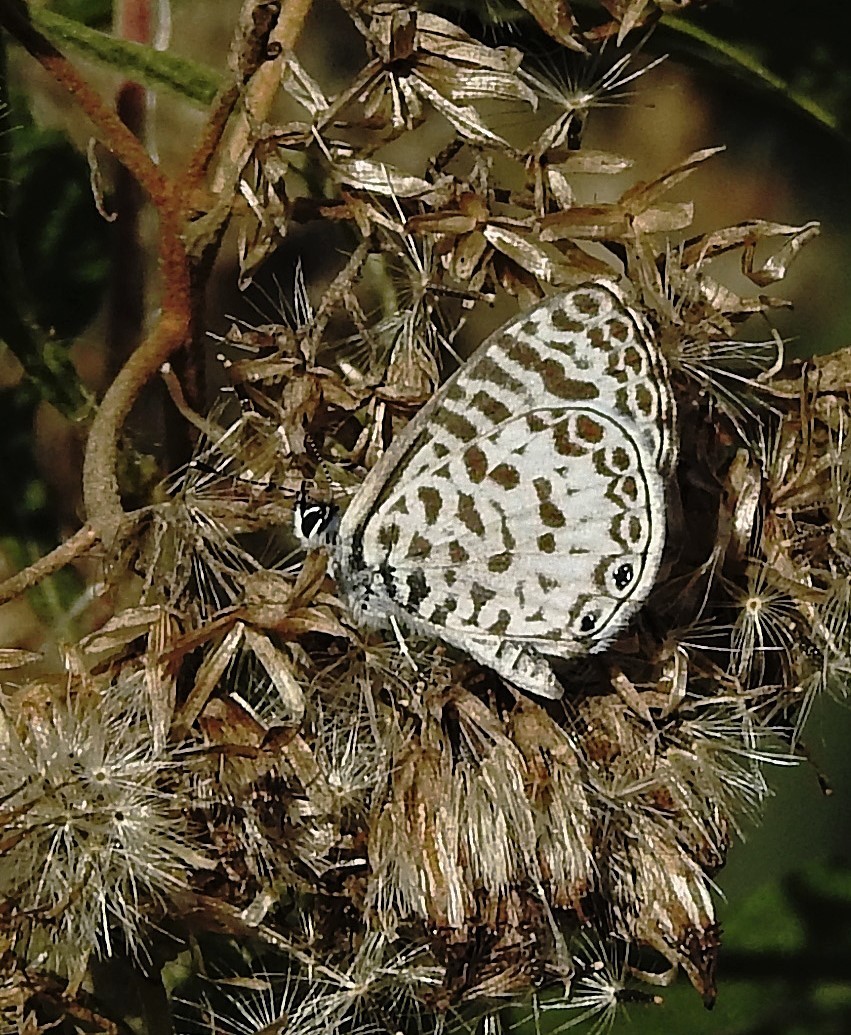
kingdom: Animalia
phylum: Arthropoda
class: Insecta
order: Lepidoptera
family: Lycaenidae
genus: Leptotes
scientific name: Leptotes cassius
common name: Cassius blue
